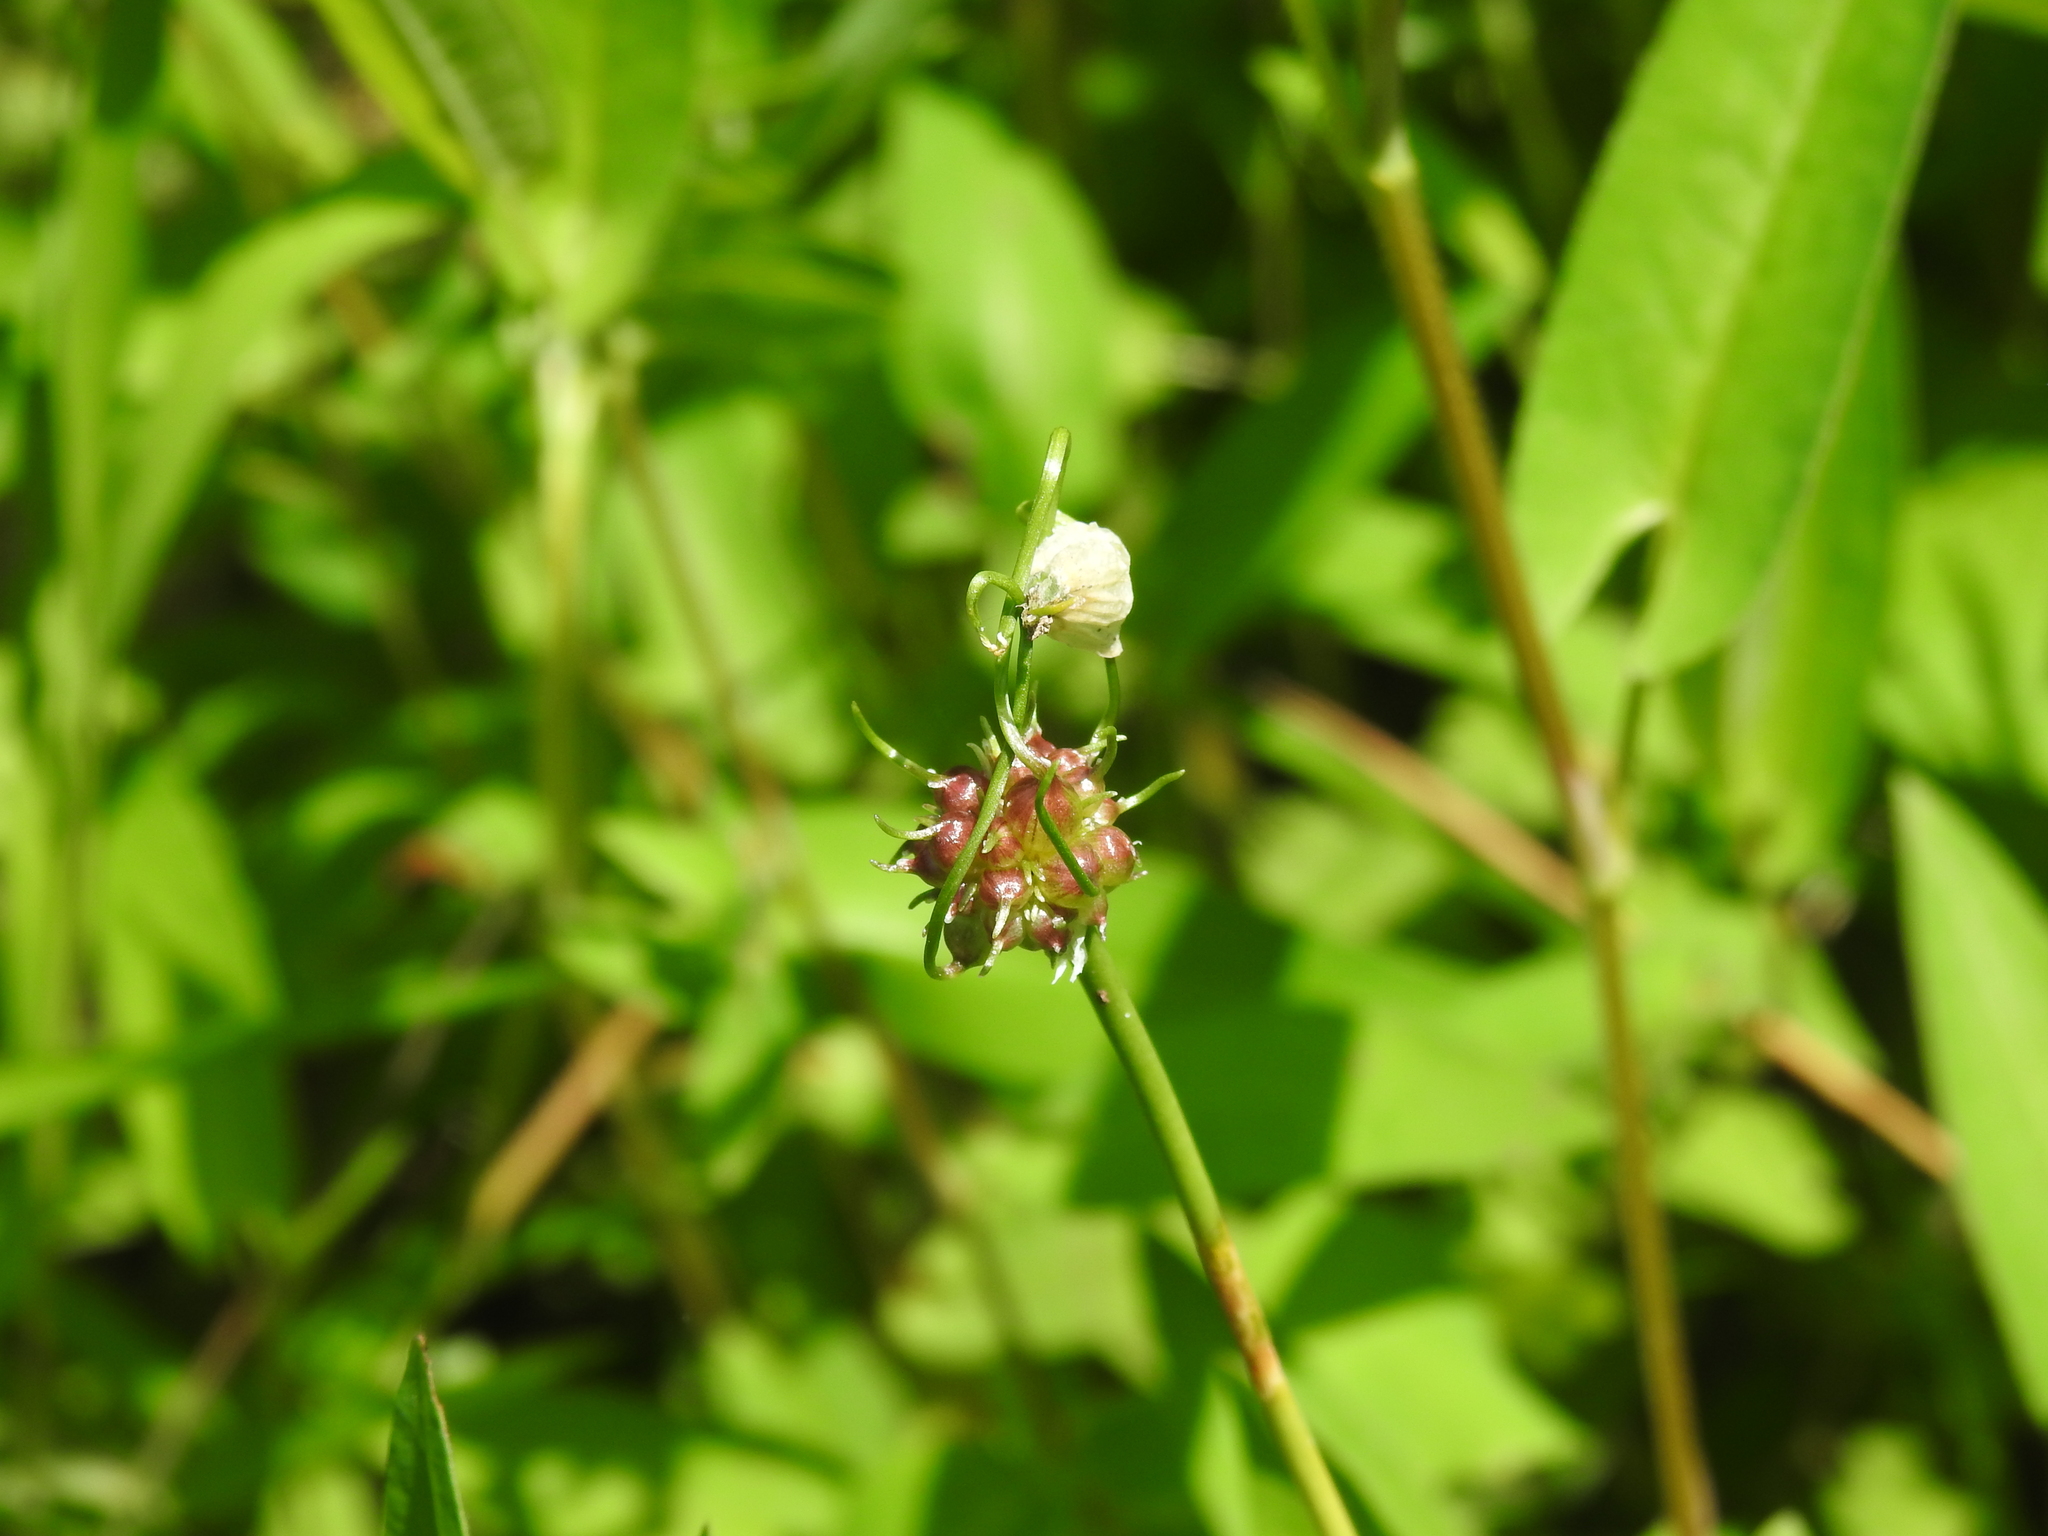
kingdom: Plantae
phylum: Tracheophyta
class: Liliopsida
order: Asparagales
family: Amaryllidaceae
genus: Allium
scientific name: Allium canadense
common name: Meadow garlic
